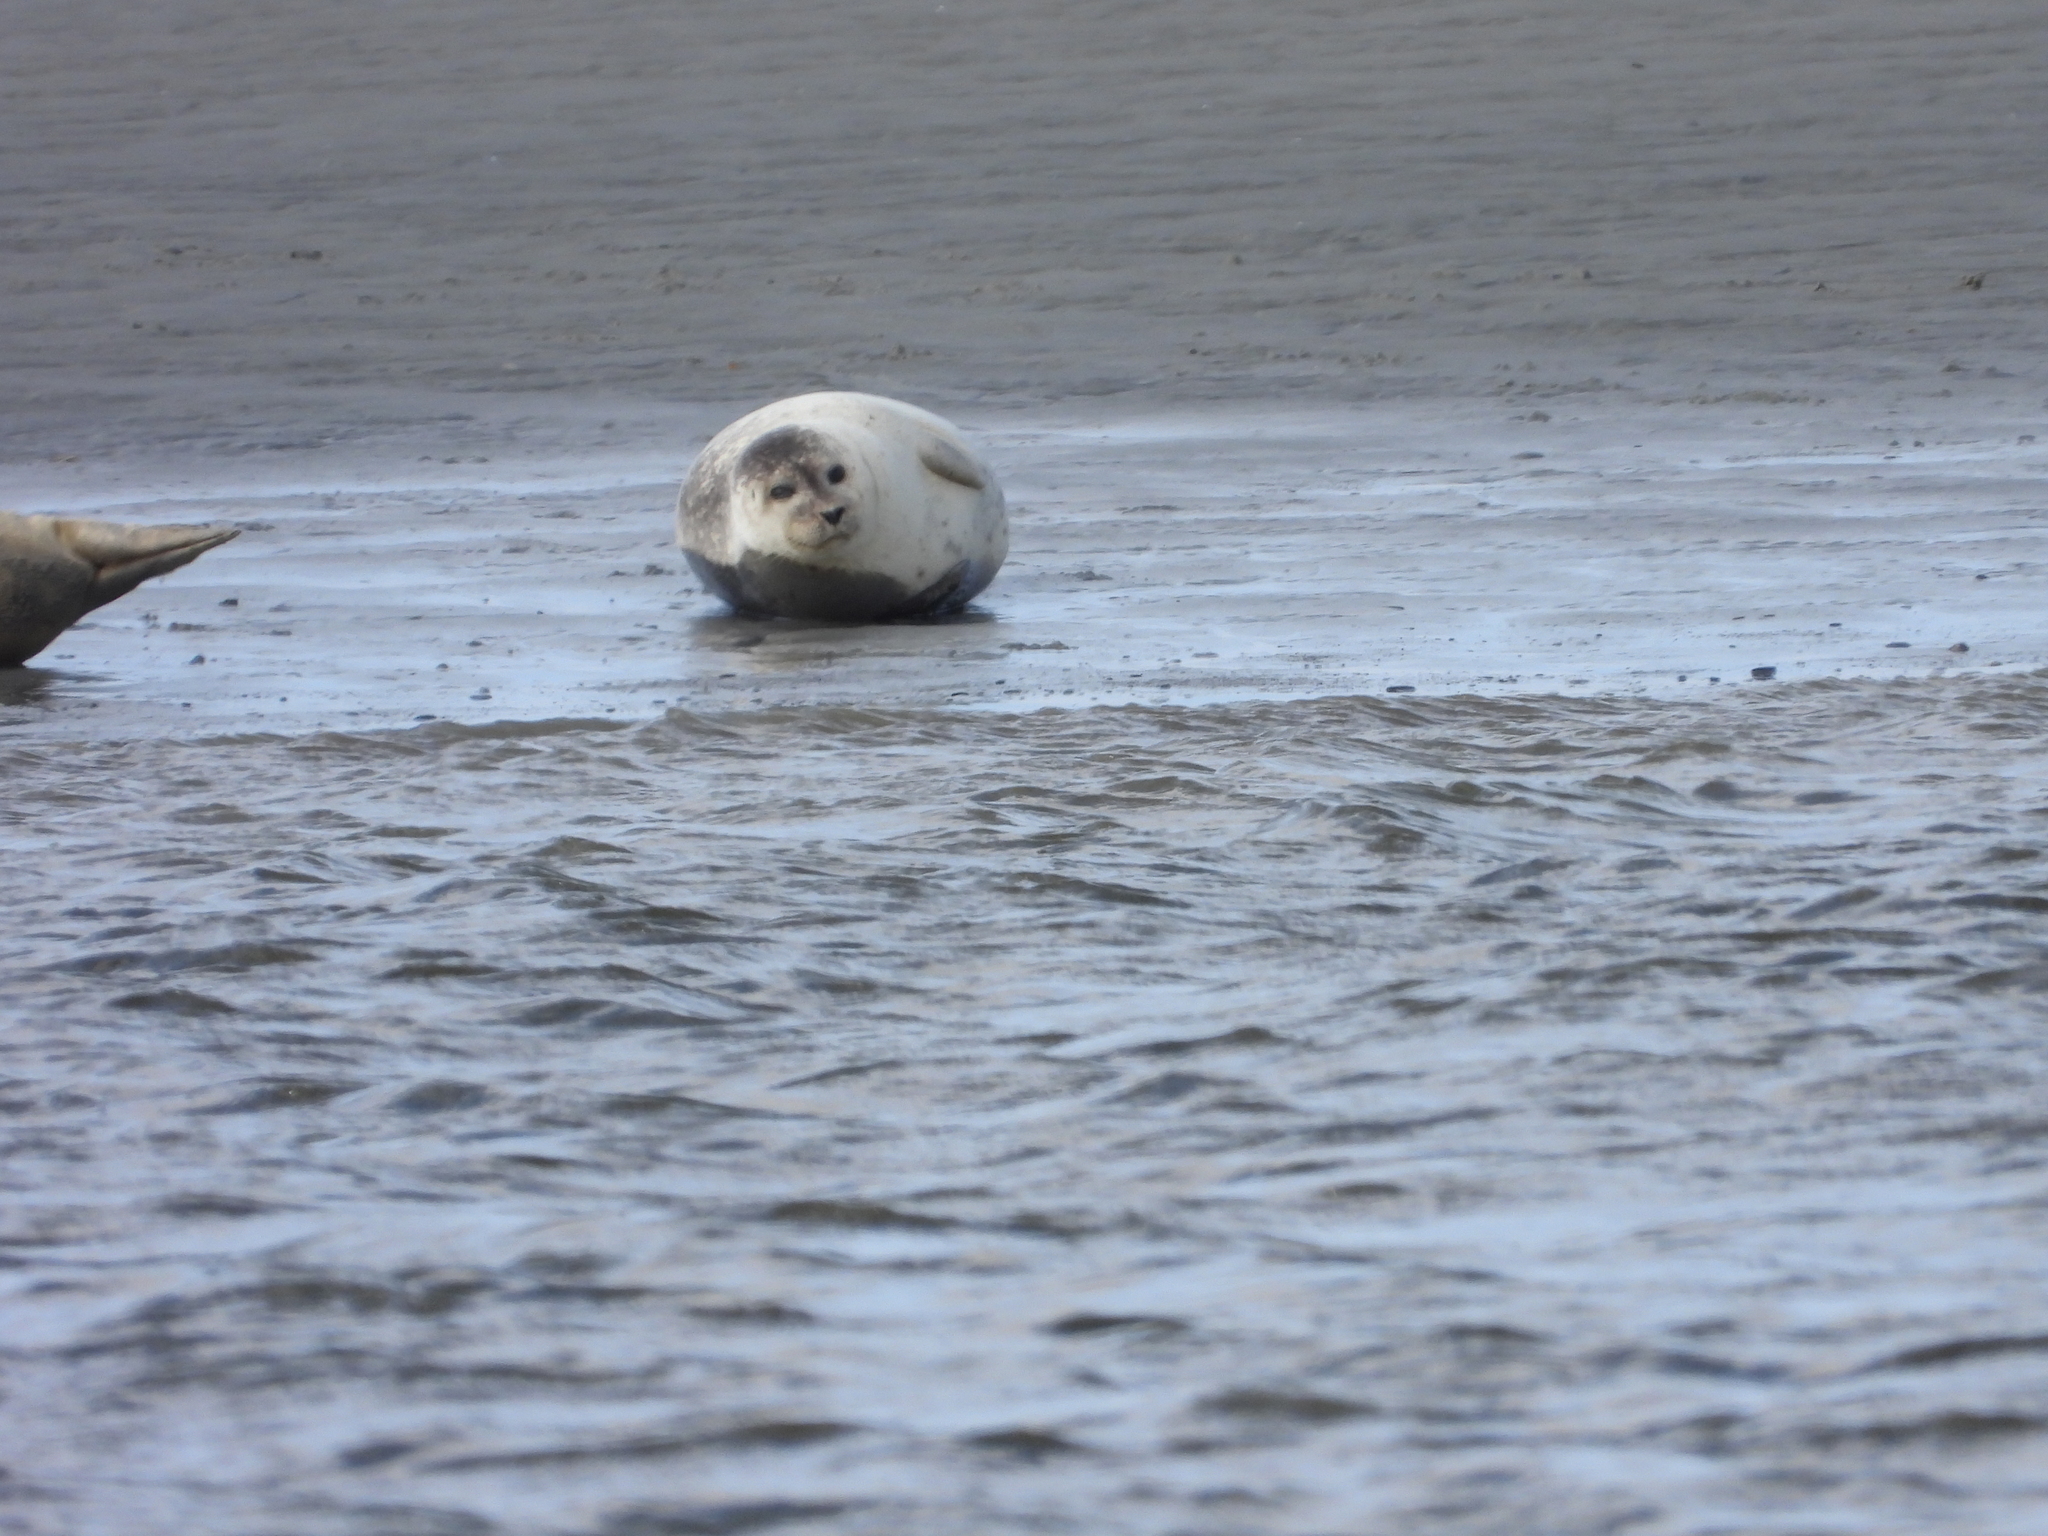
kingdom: Animalia
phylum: Chordata
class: Mammalia
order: Carnivora
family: Phocidae
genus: Phoca
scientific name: Phoca vitulina
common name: Harbor seal
